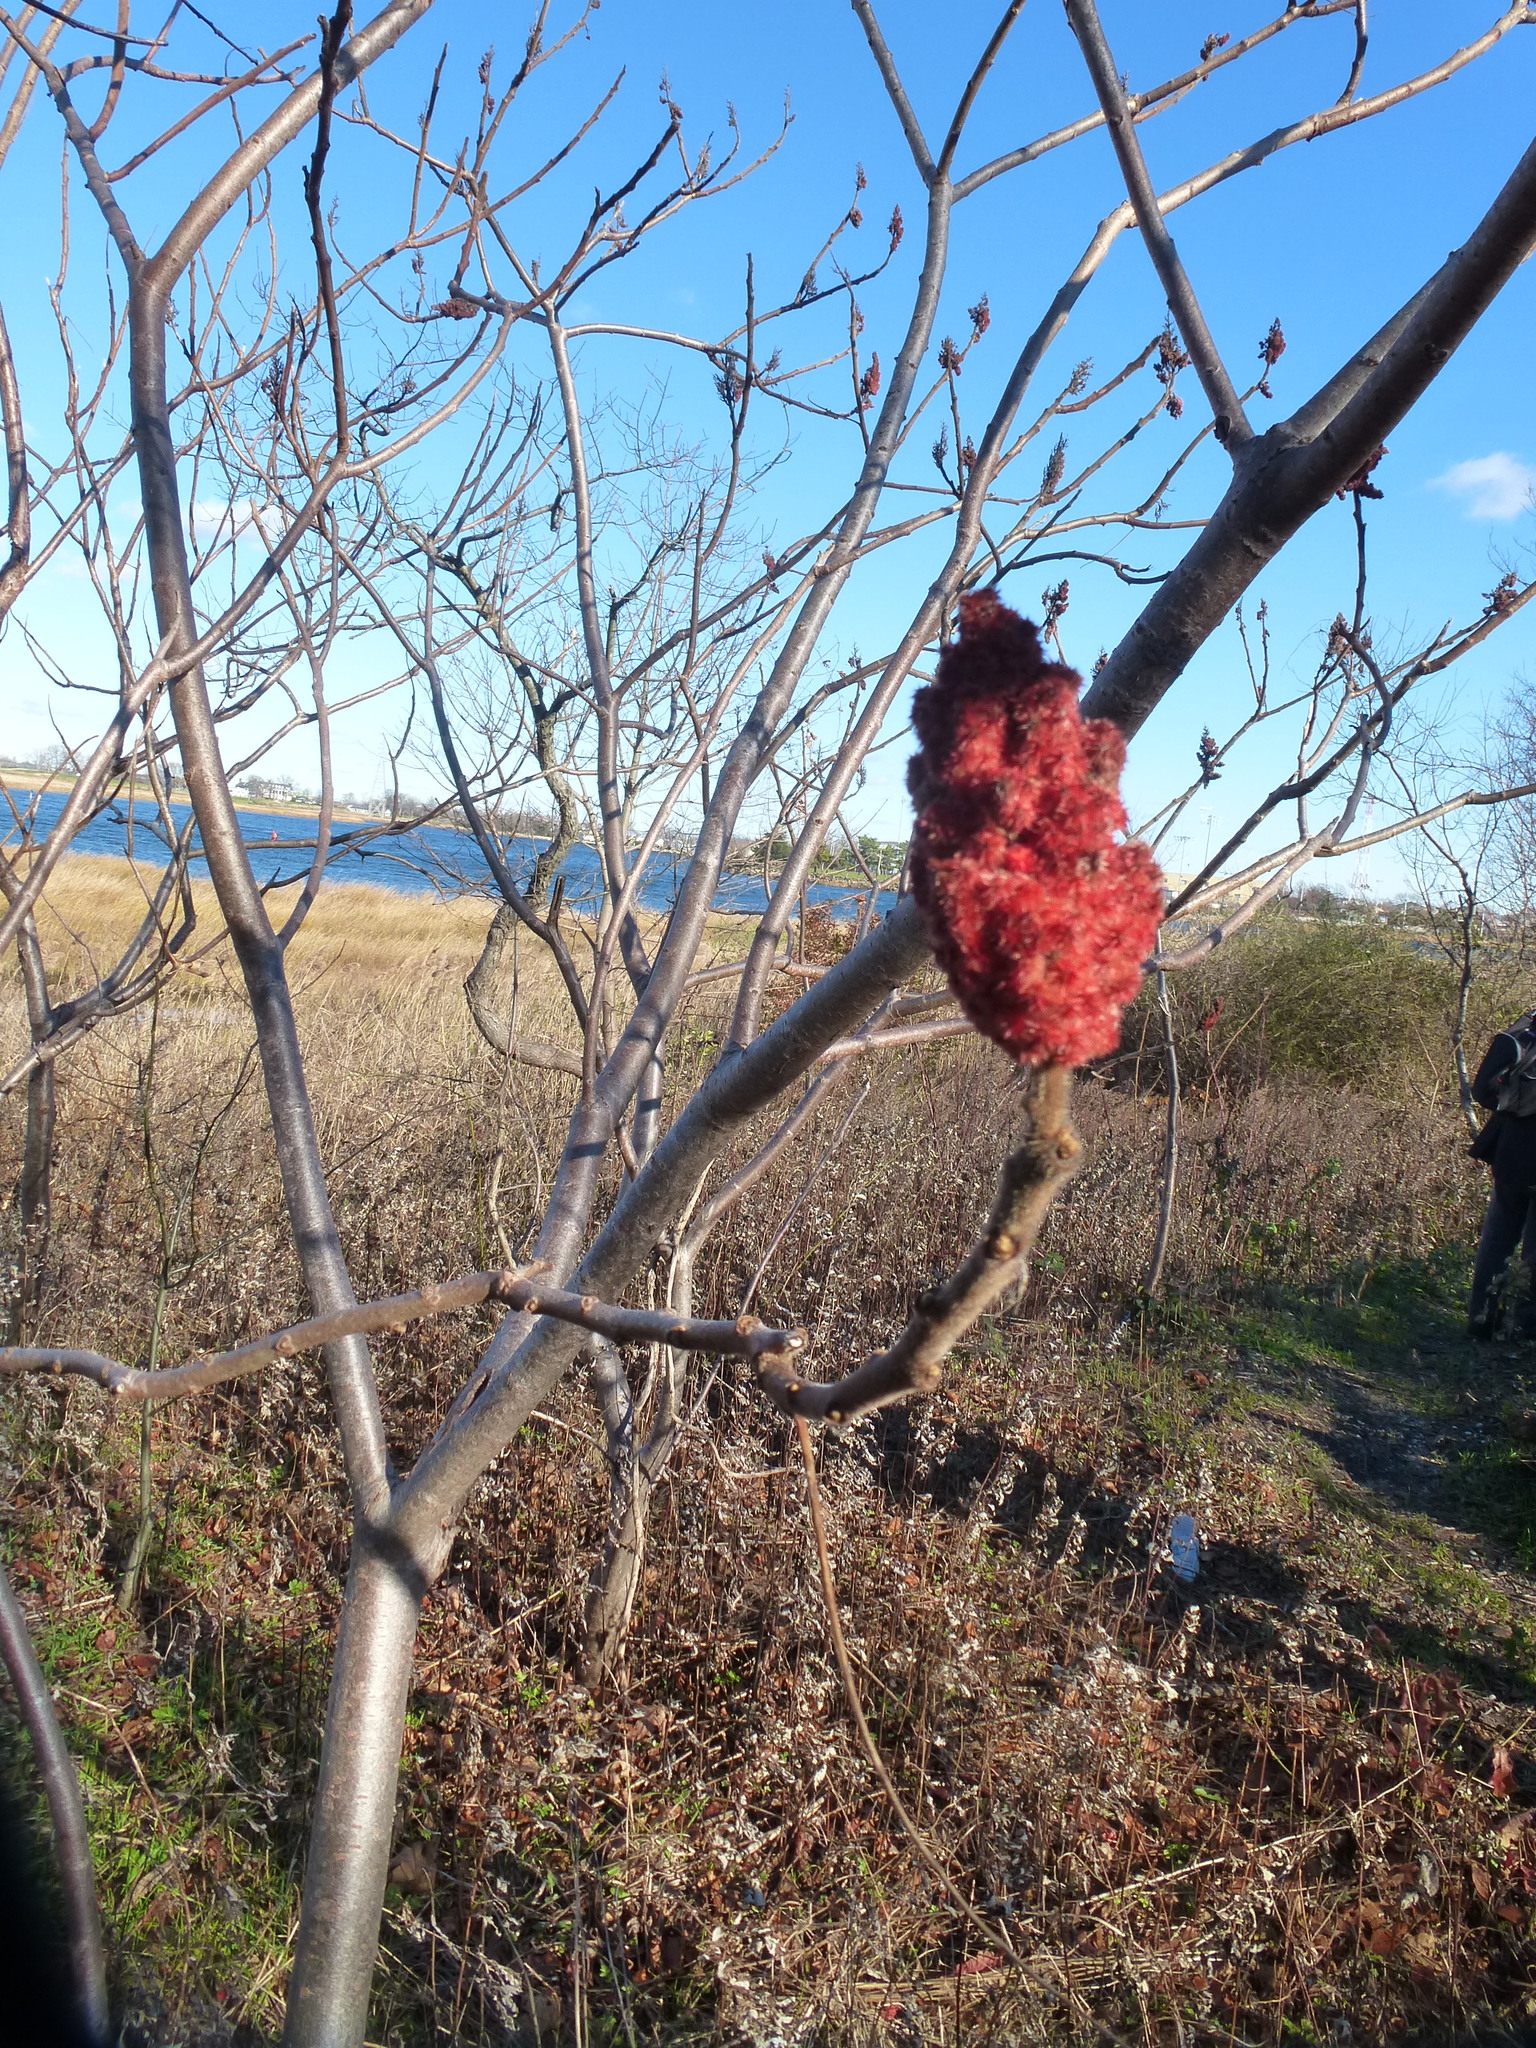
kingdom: Plantae
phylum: Tracheophyta
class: Magnoliopsida
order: Sapindales
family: Anacardiaceae
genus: Rhus
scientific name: Rhus typhina
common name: Staghorn sumac
